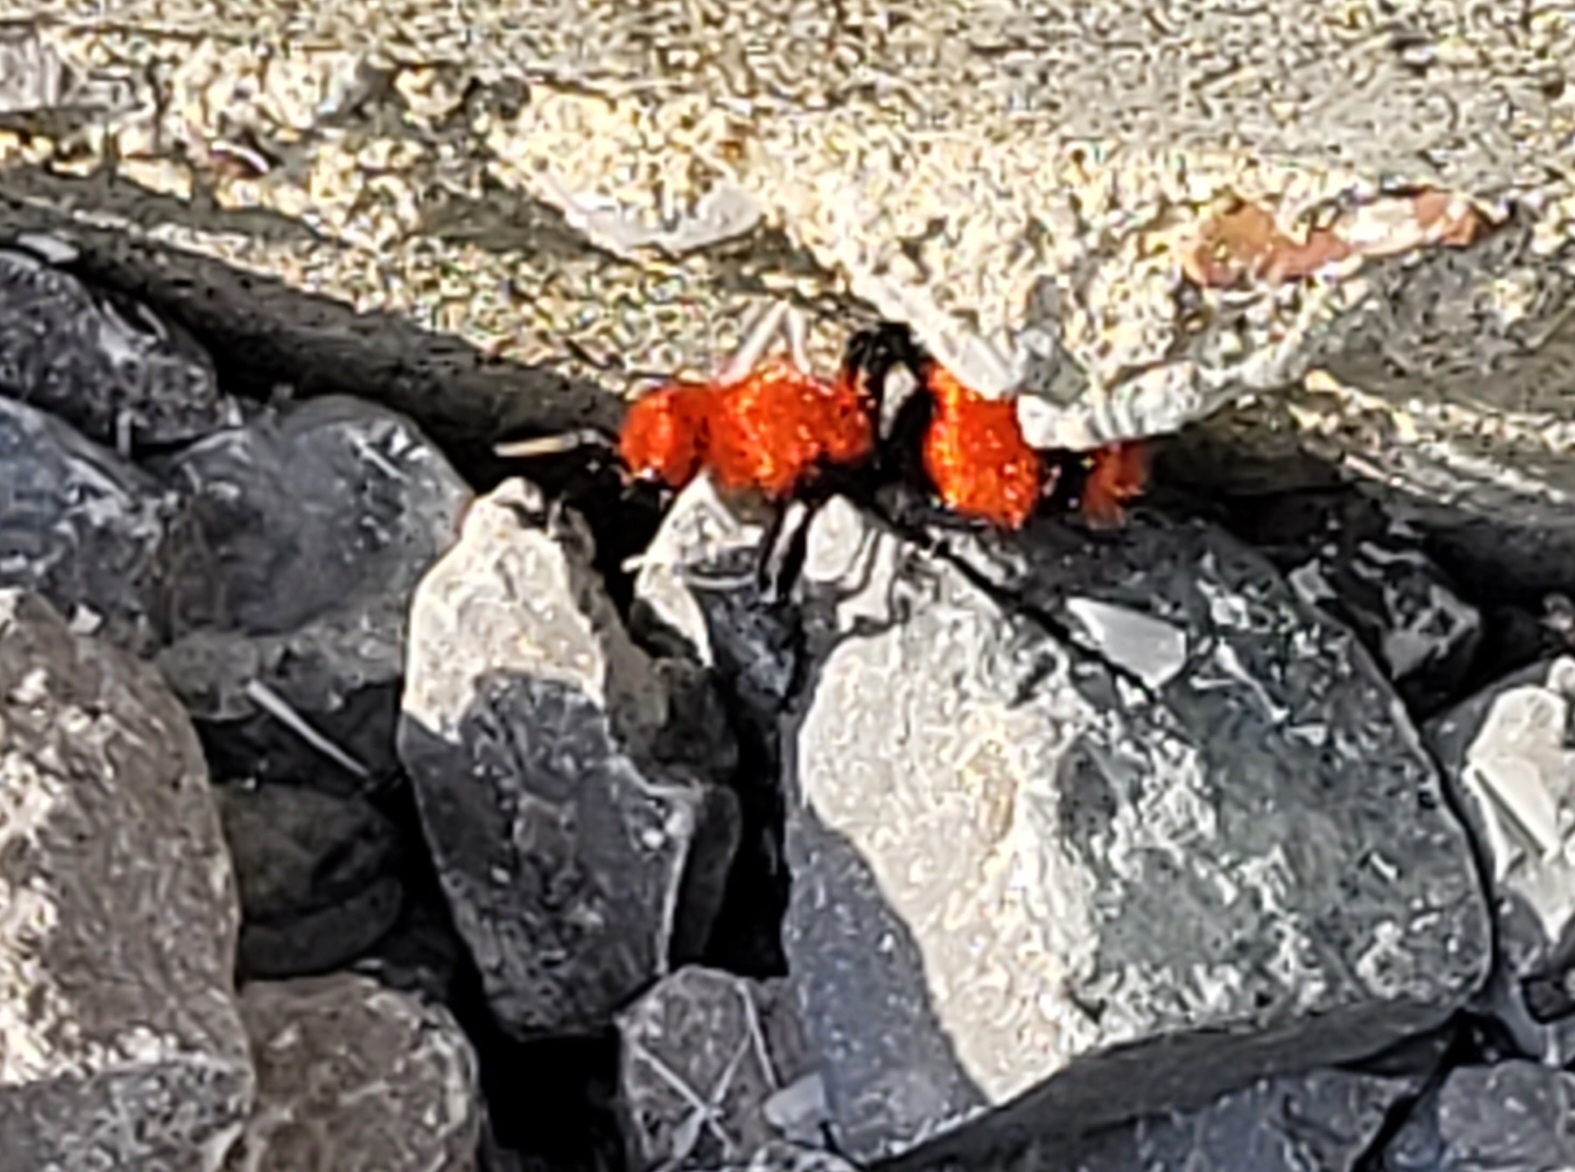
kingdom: Animalia
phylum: Arthropoda
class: Insecta
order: Hymenoptera
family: Mutillidae
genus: Dasymutilla
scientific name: Dasymutilla occidentalis
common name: Common eastern velvet ant
